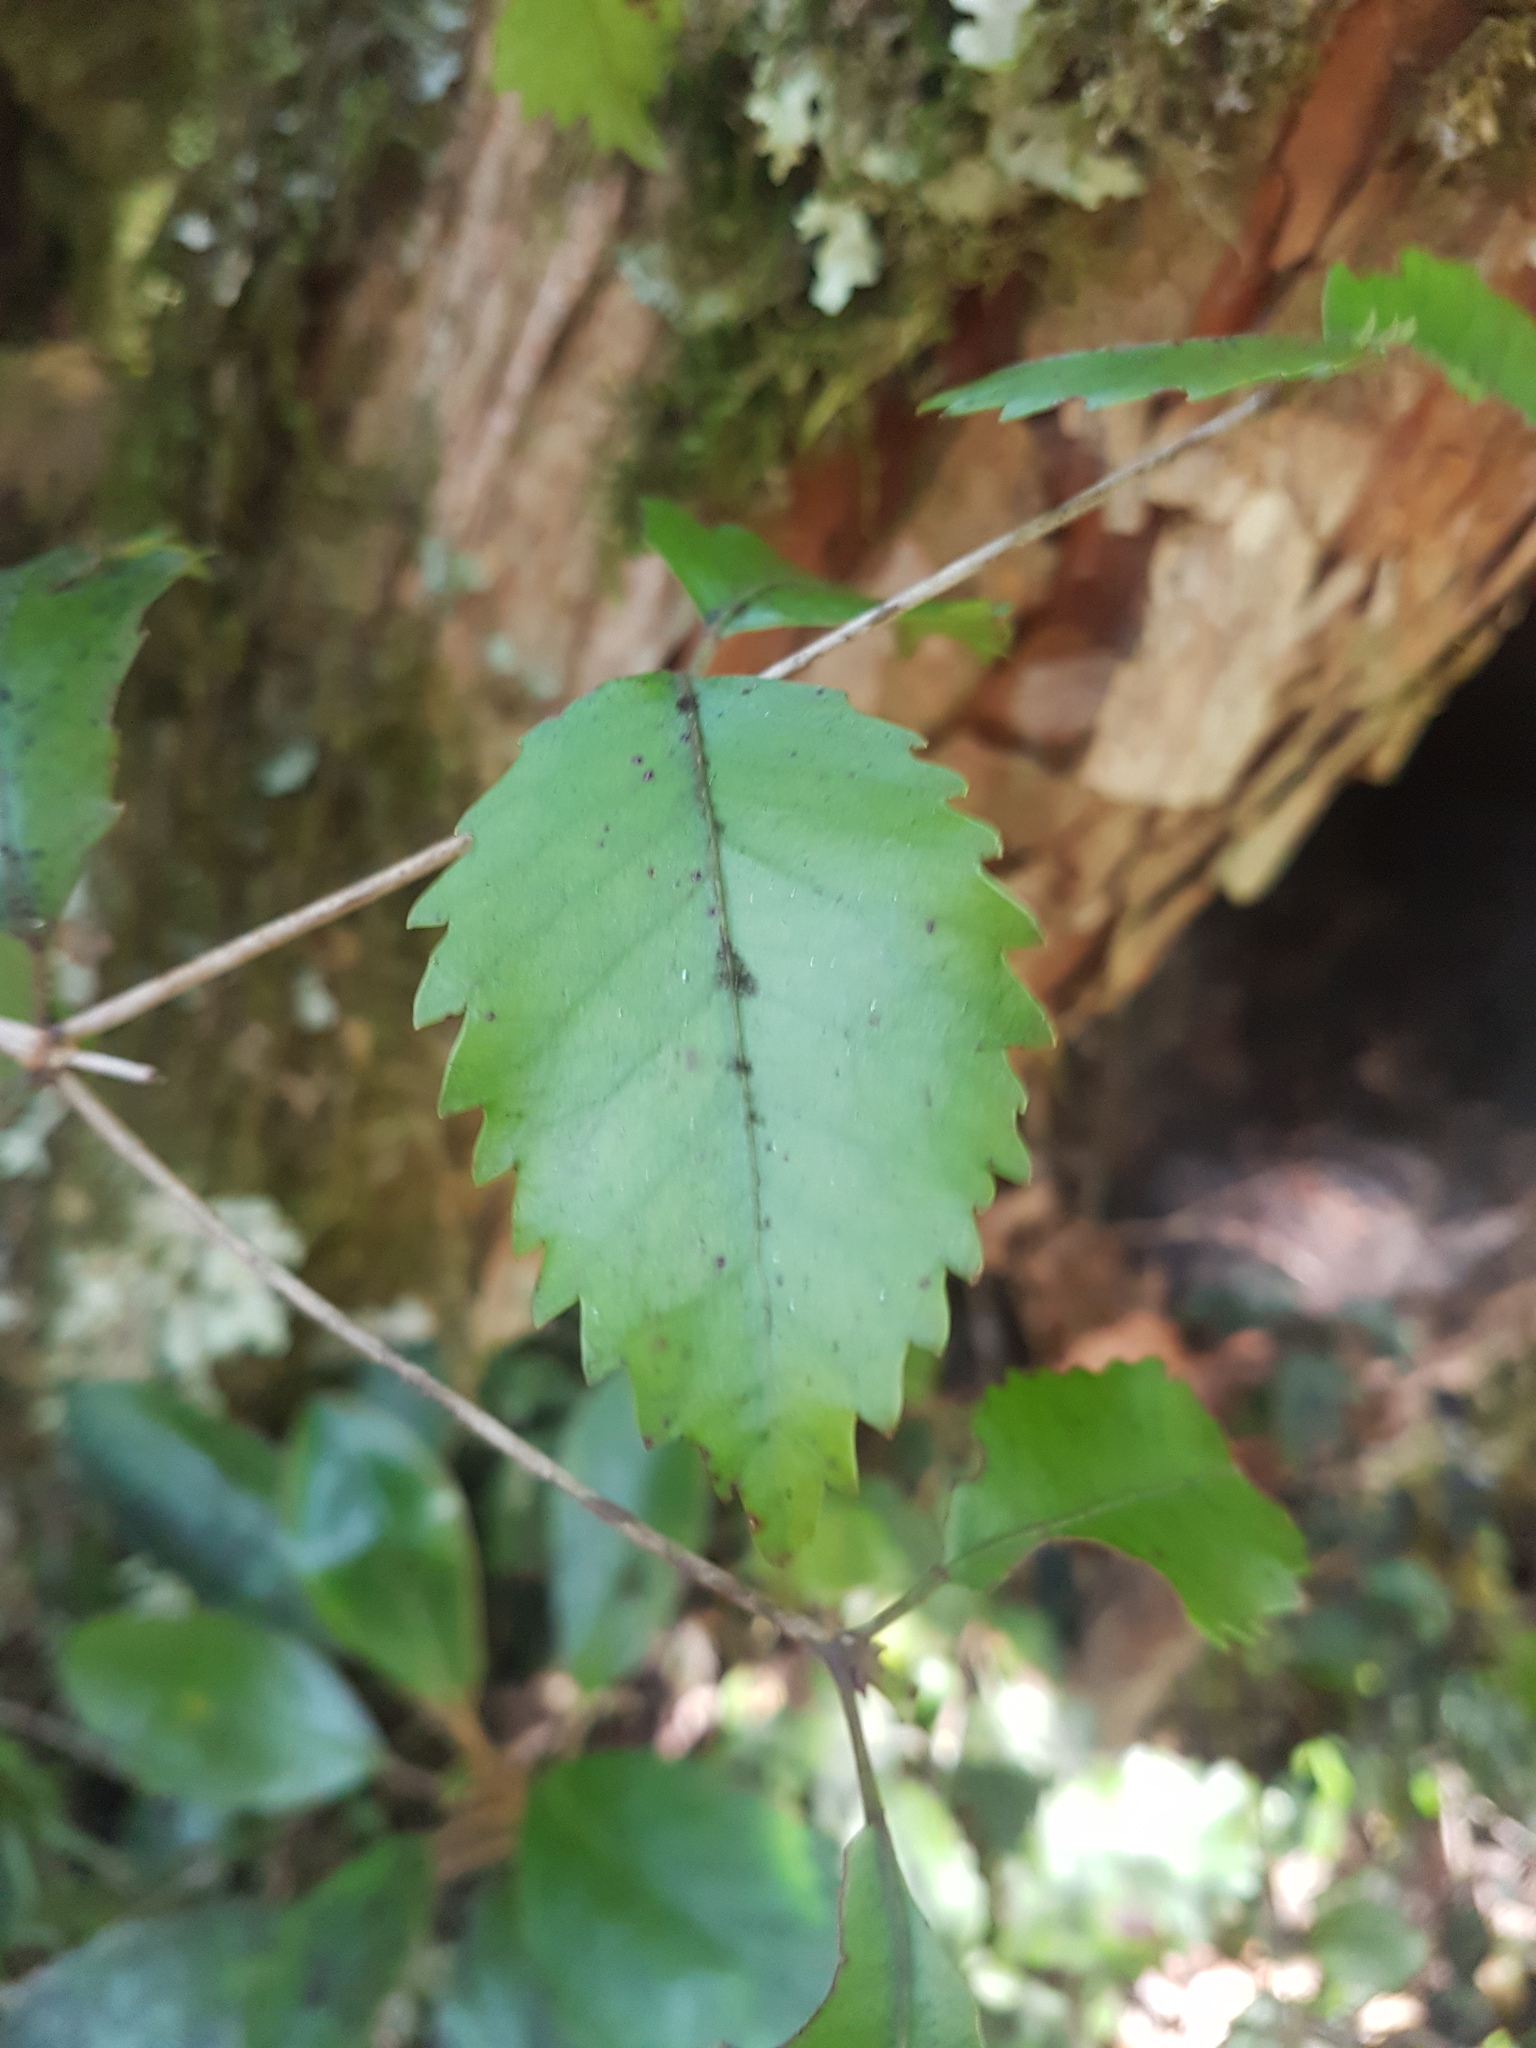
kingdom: Plantae
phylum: Tracheophyta
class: Magnoliopsida
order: Oxalidales
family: Cunoniaceae
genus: Pterophylla
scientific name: Pterophylla racemosa
